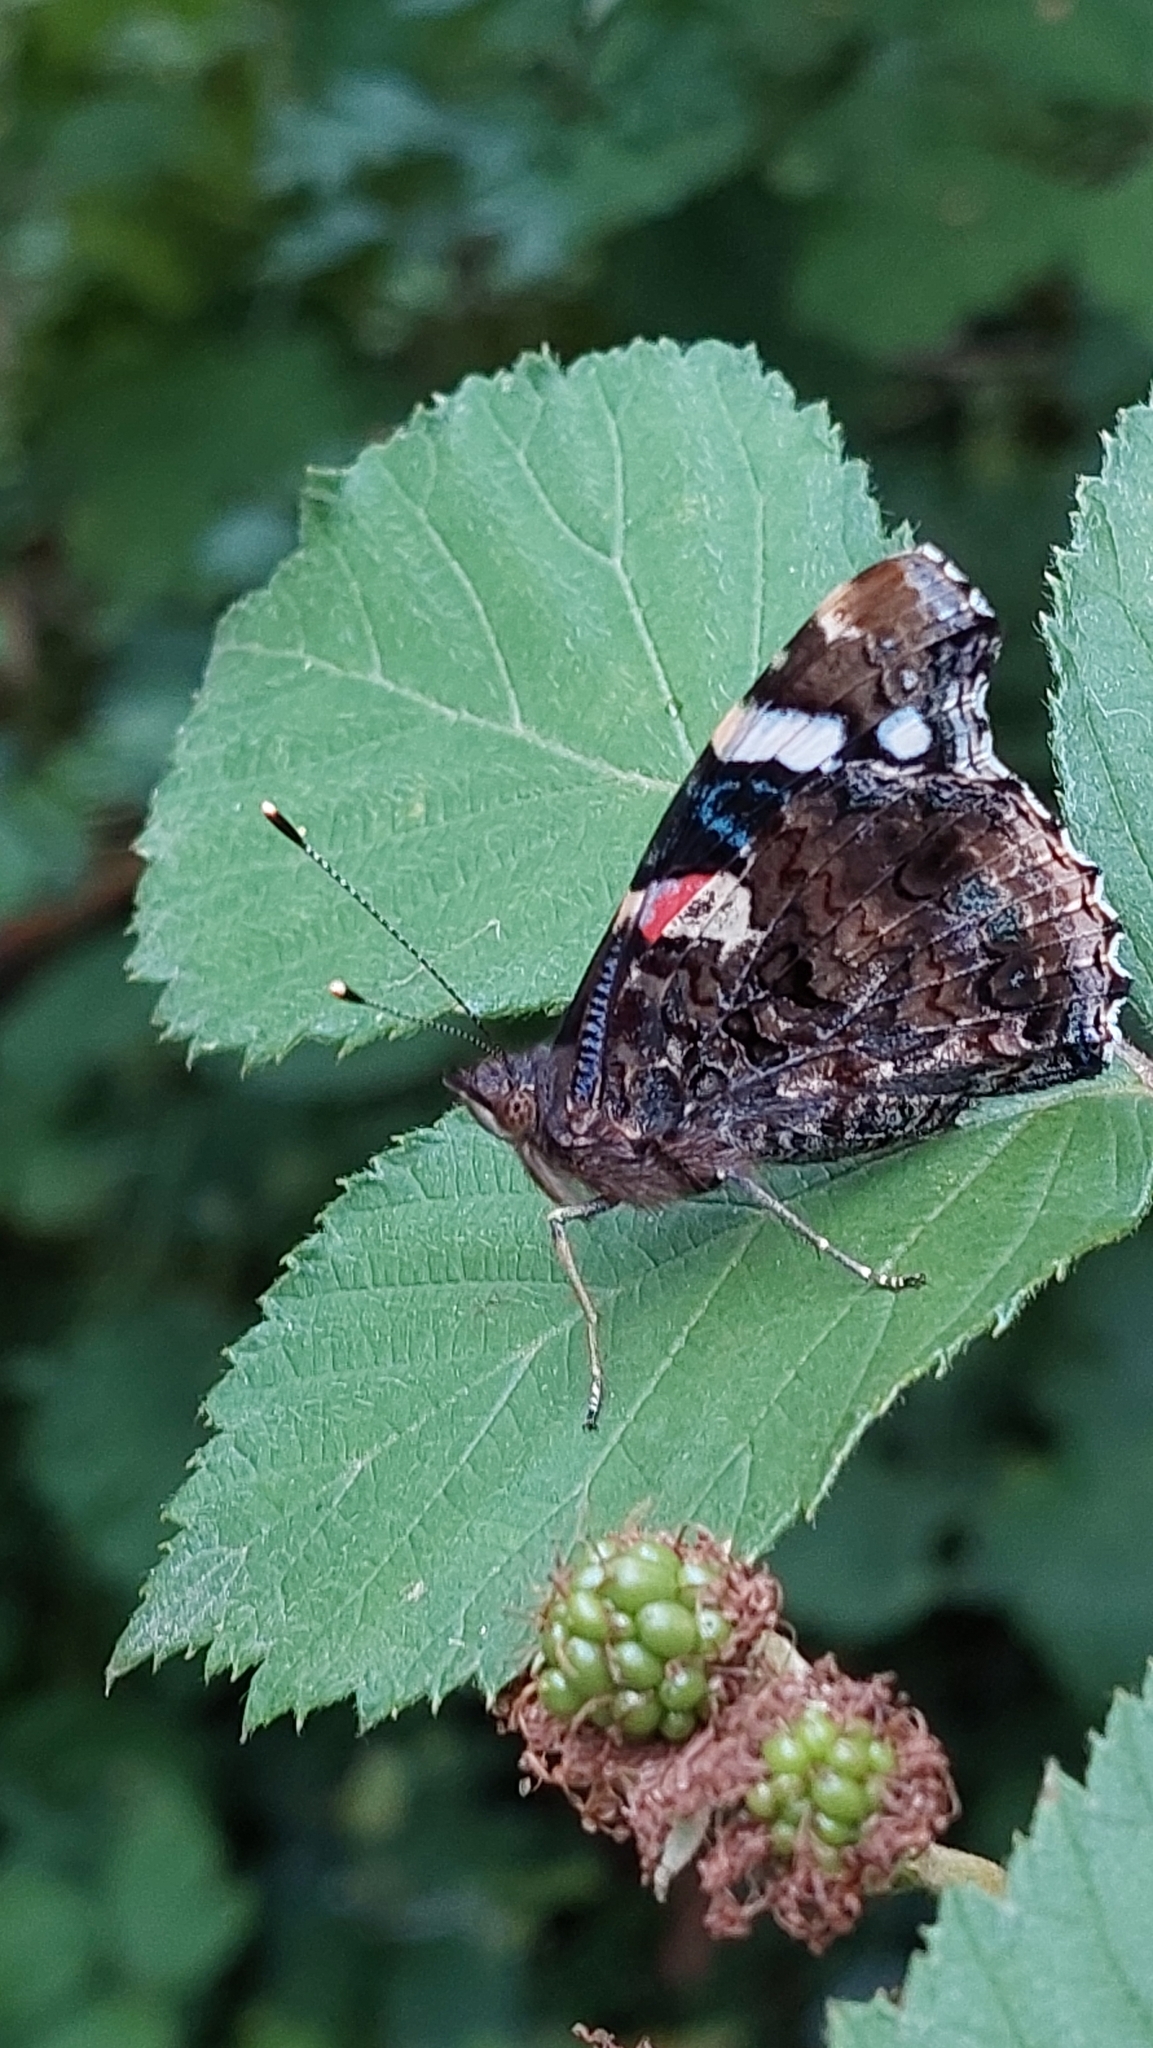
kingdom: Animalia
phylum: Arthropoda
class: Insecta
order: Lepidoptera
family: Nymphalidae
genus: Vanessa
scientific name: Vanessa atalanta
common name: Red admiral
